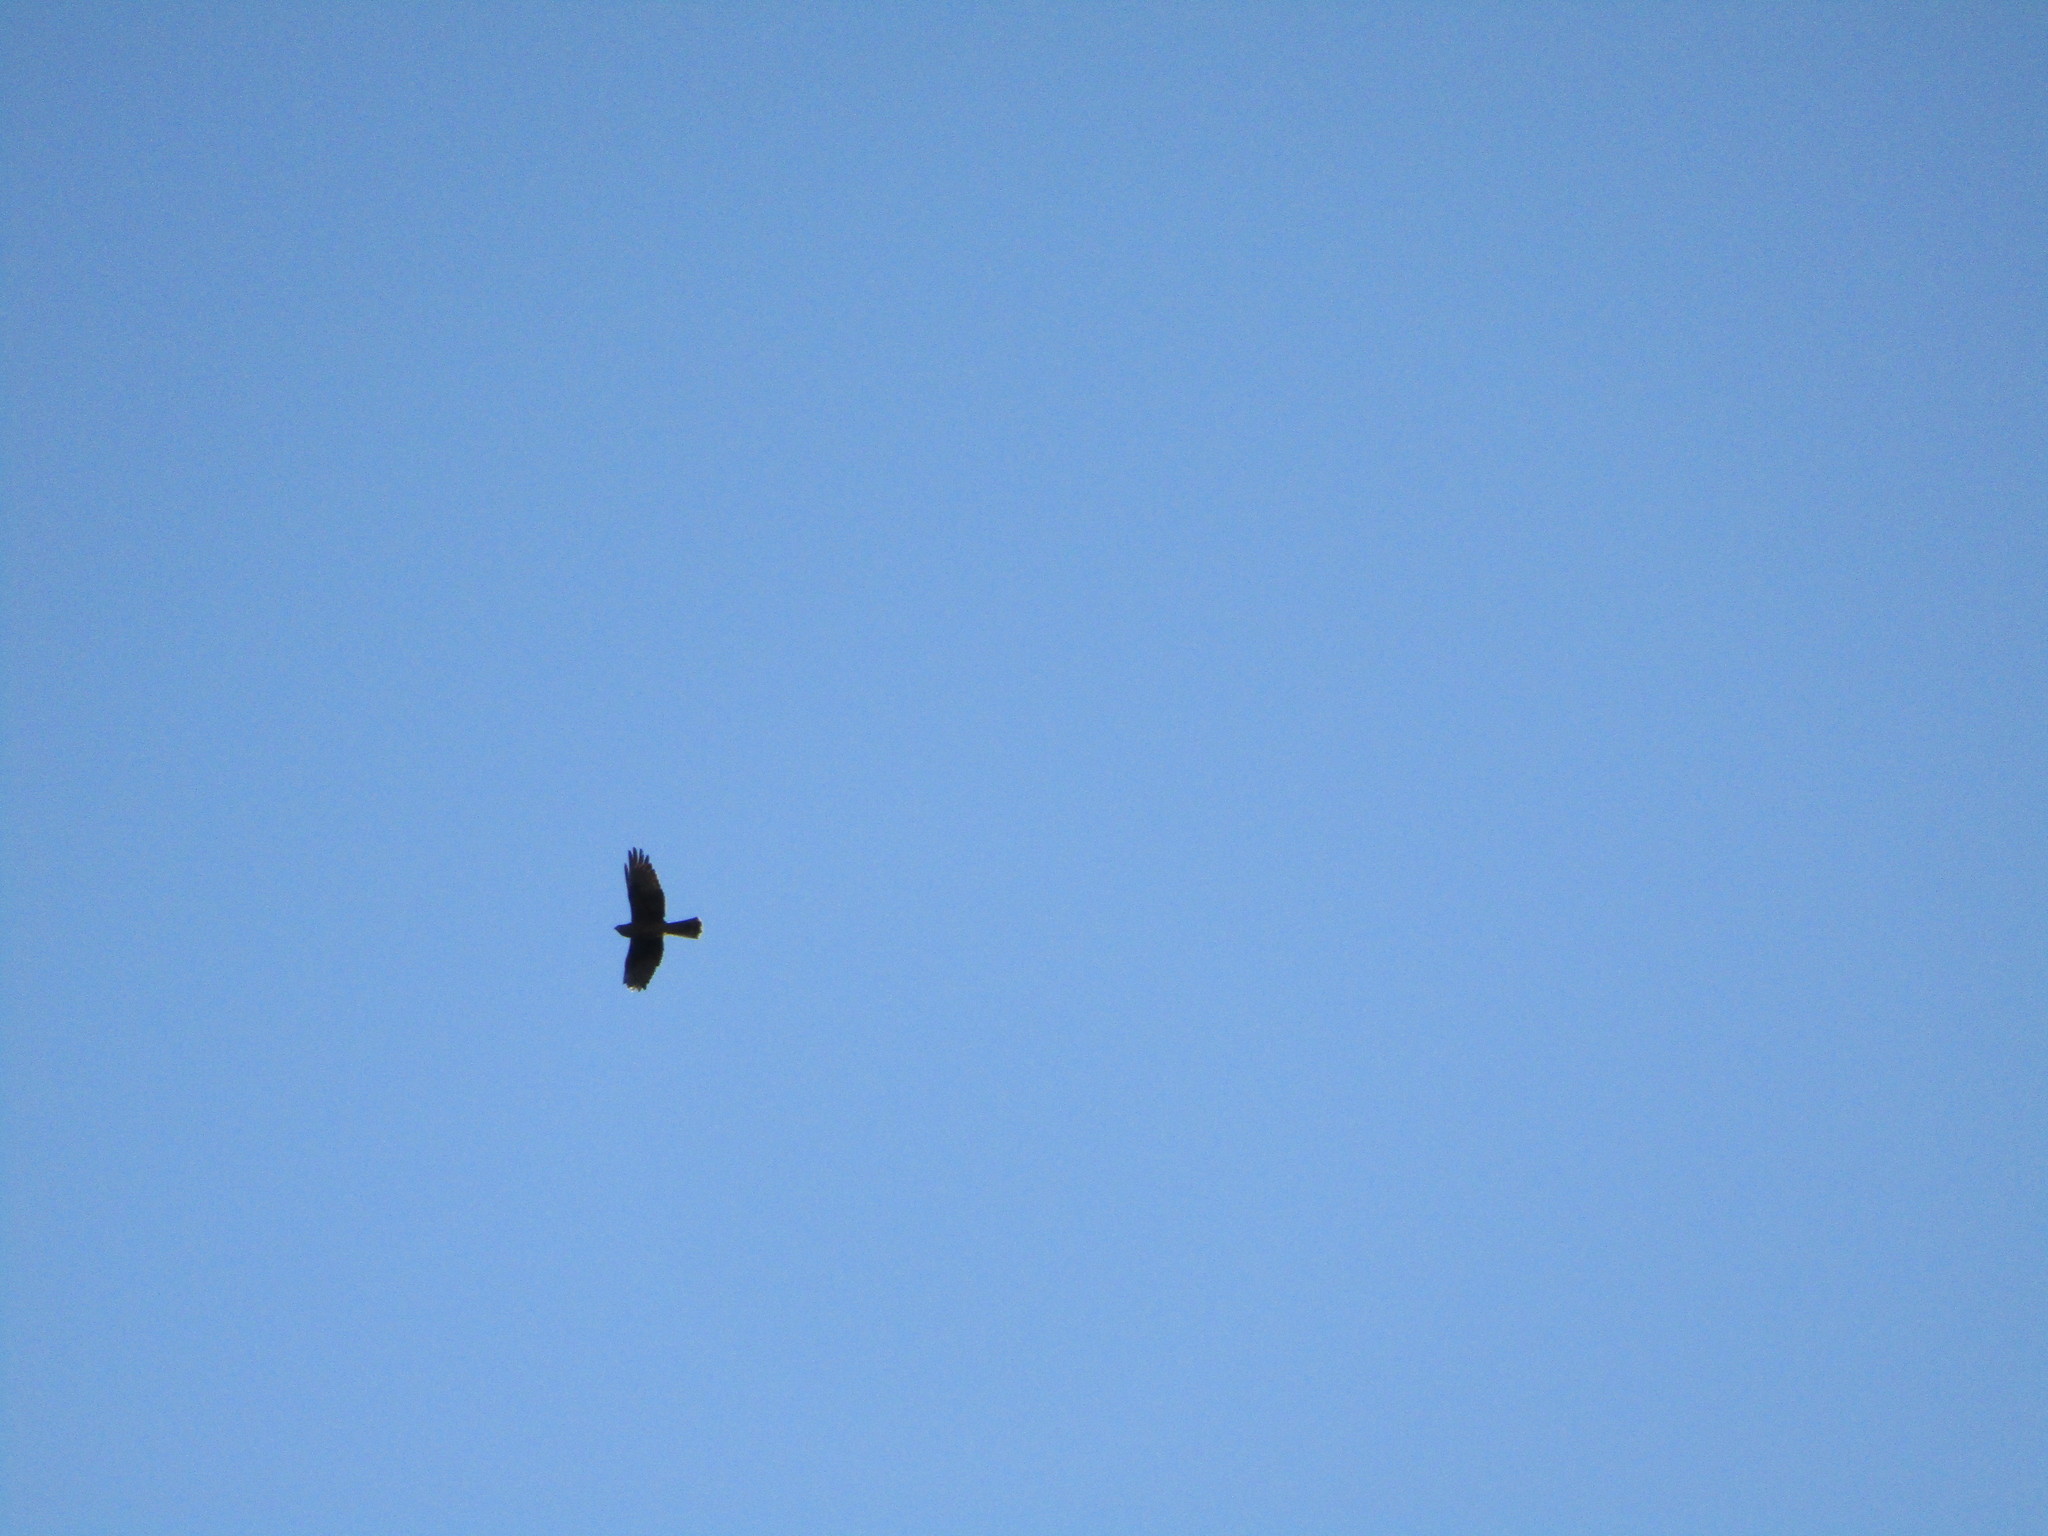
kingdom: Animalia
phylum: Chordata
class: Aves
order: Accipitriformes
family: Accipitridae
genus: Circus
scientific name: Circus approximans
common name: Swamp harrier
